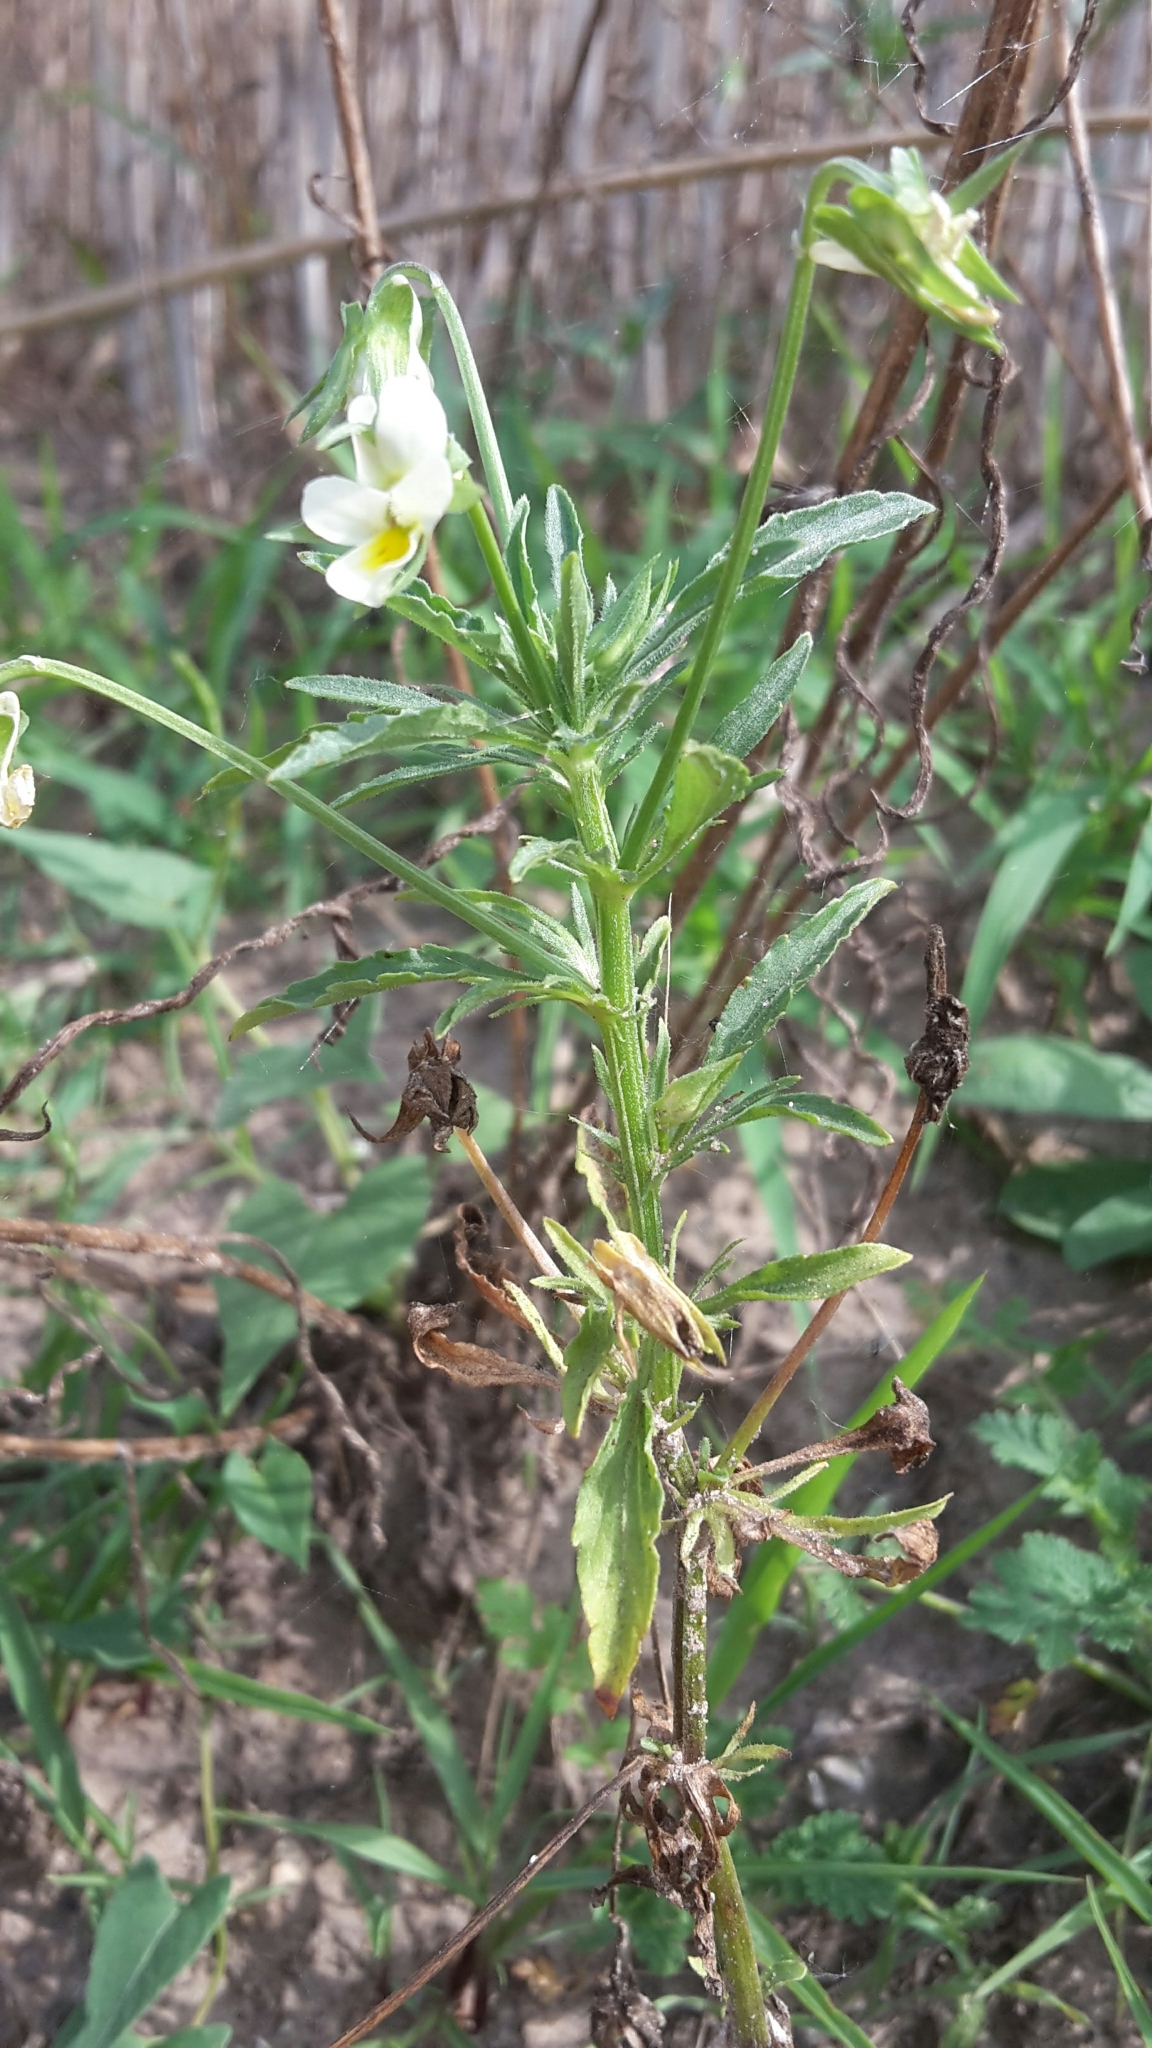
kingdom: Plantae
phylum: Tracheophyta
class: Magnoliopsida
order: Malpighiales
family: Violaceae
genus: Viola
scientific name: Viola arvensis
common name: Field pansy
